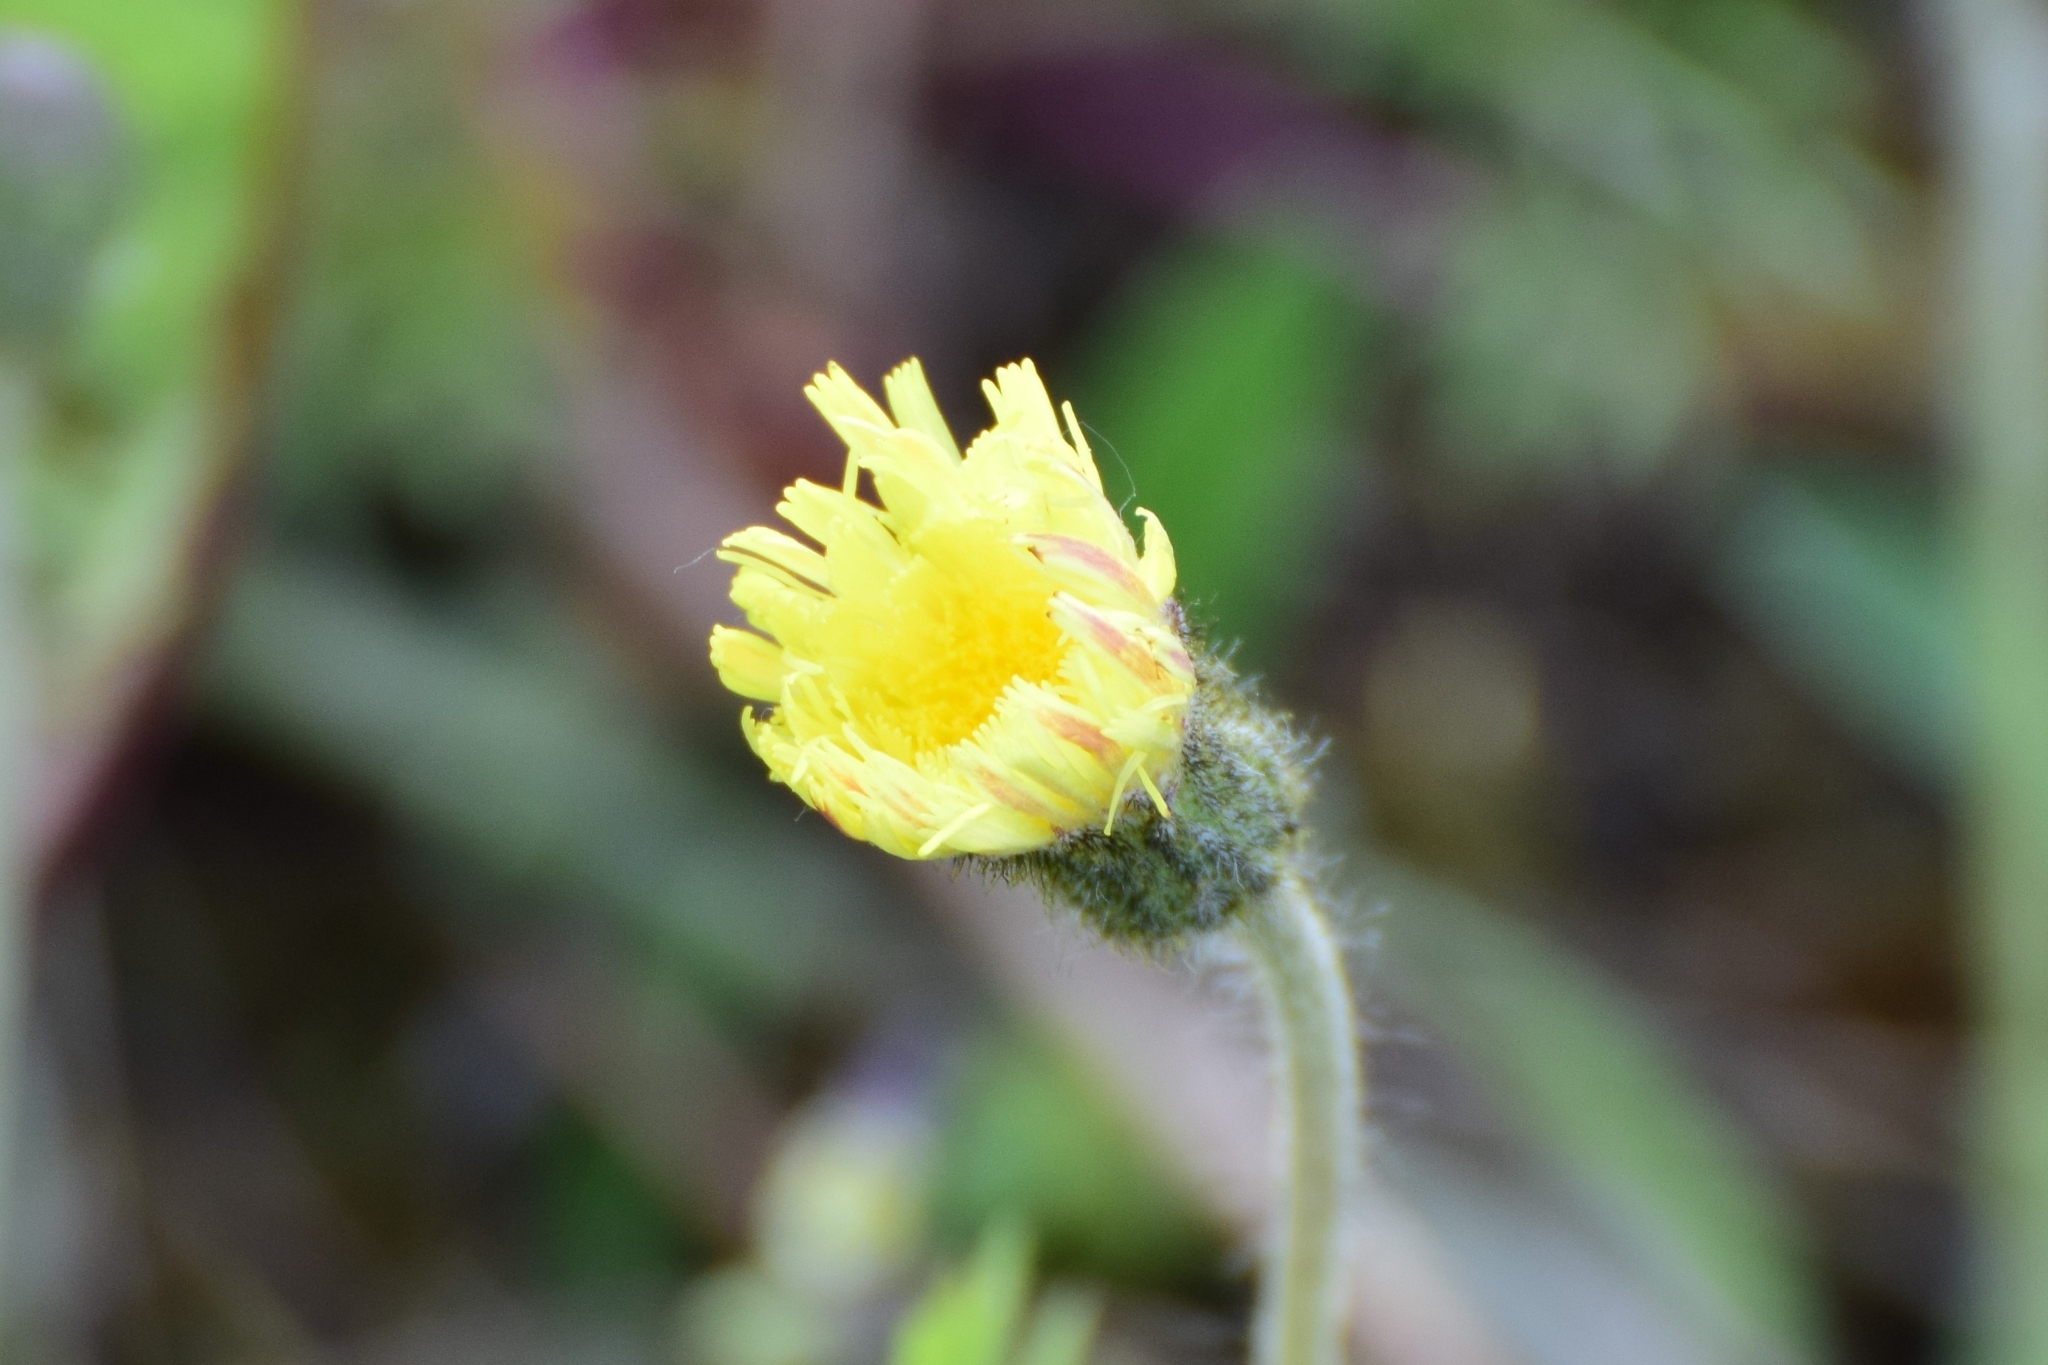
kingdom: Plantae
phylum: Tracheophyta
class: Magnoliopsida
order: Asterales
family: Asteraceae
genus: Pilosella
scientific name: Pilosella officinarum
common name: Mouse-ear hawkweed
